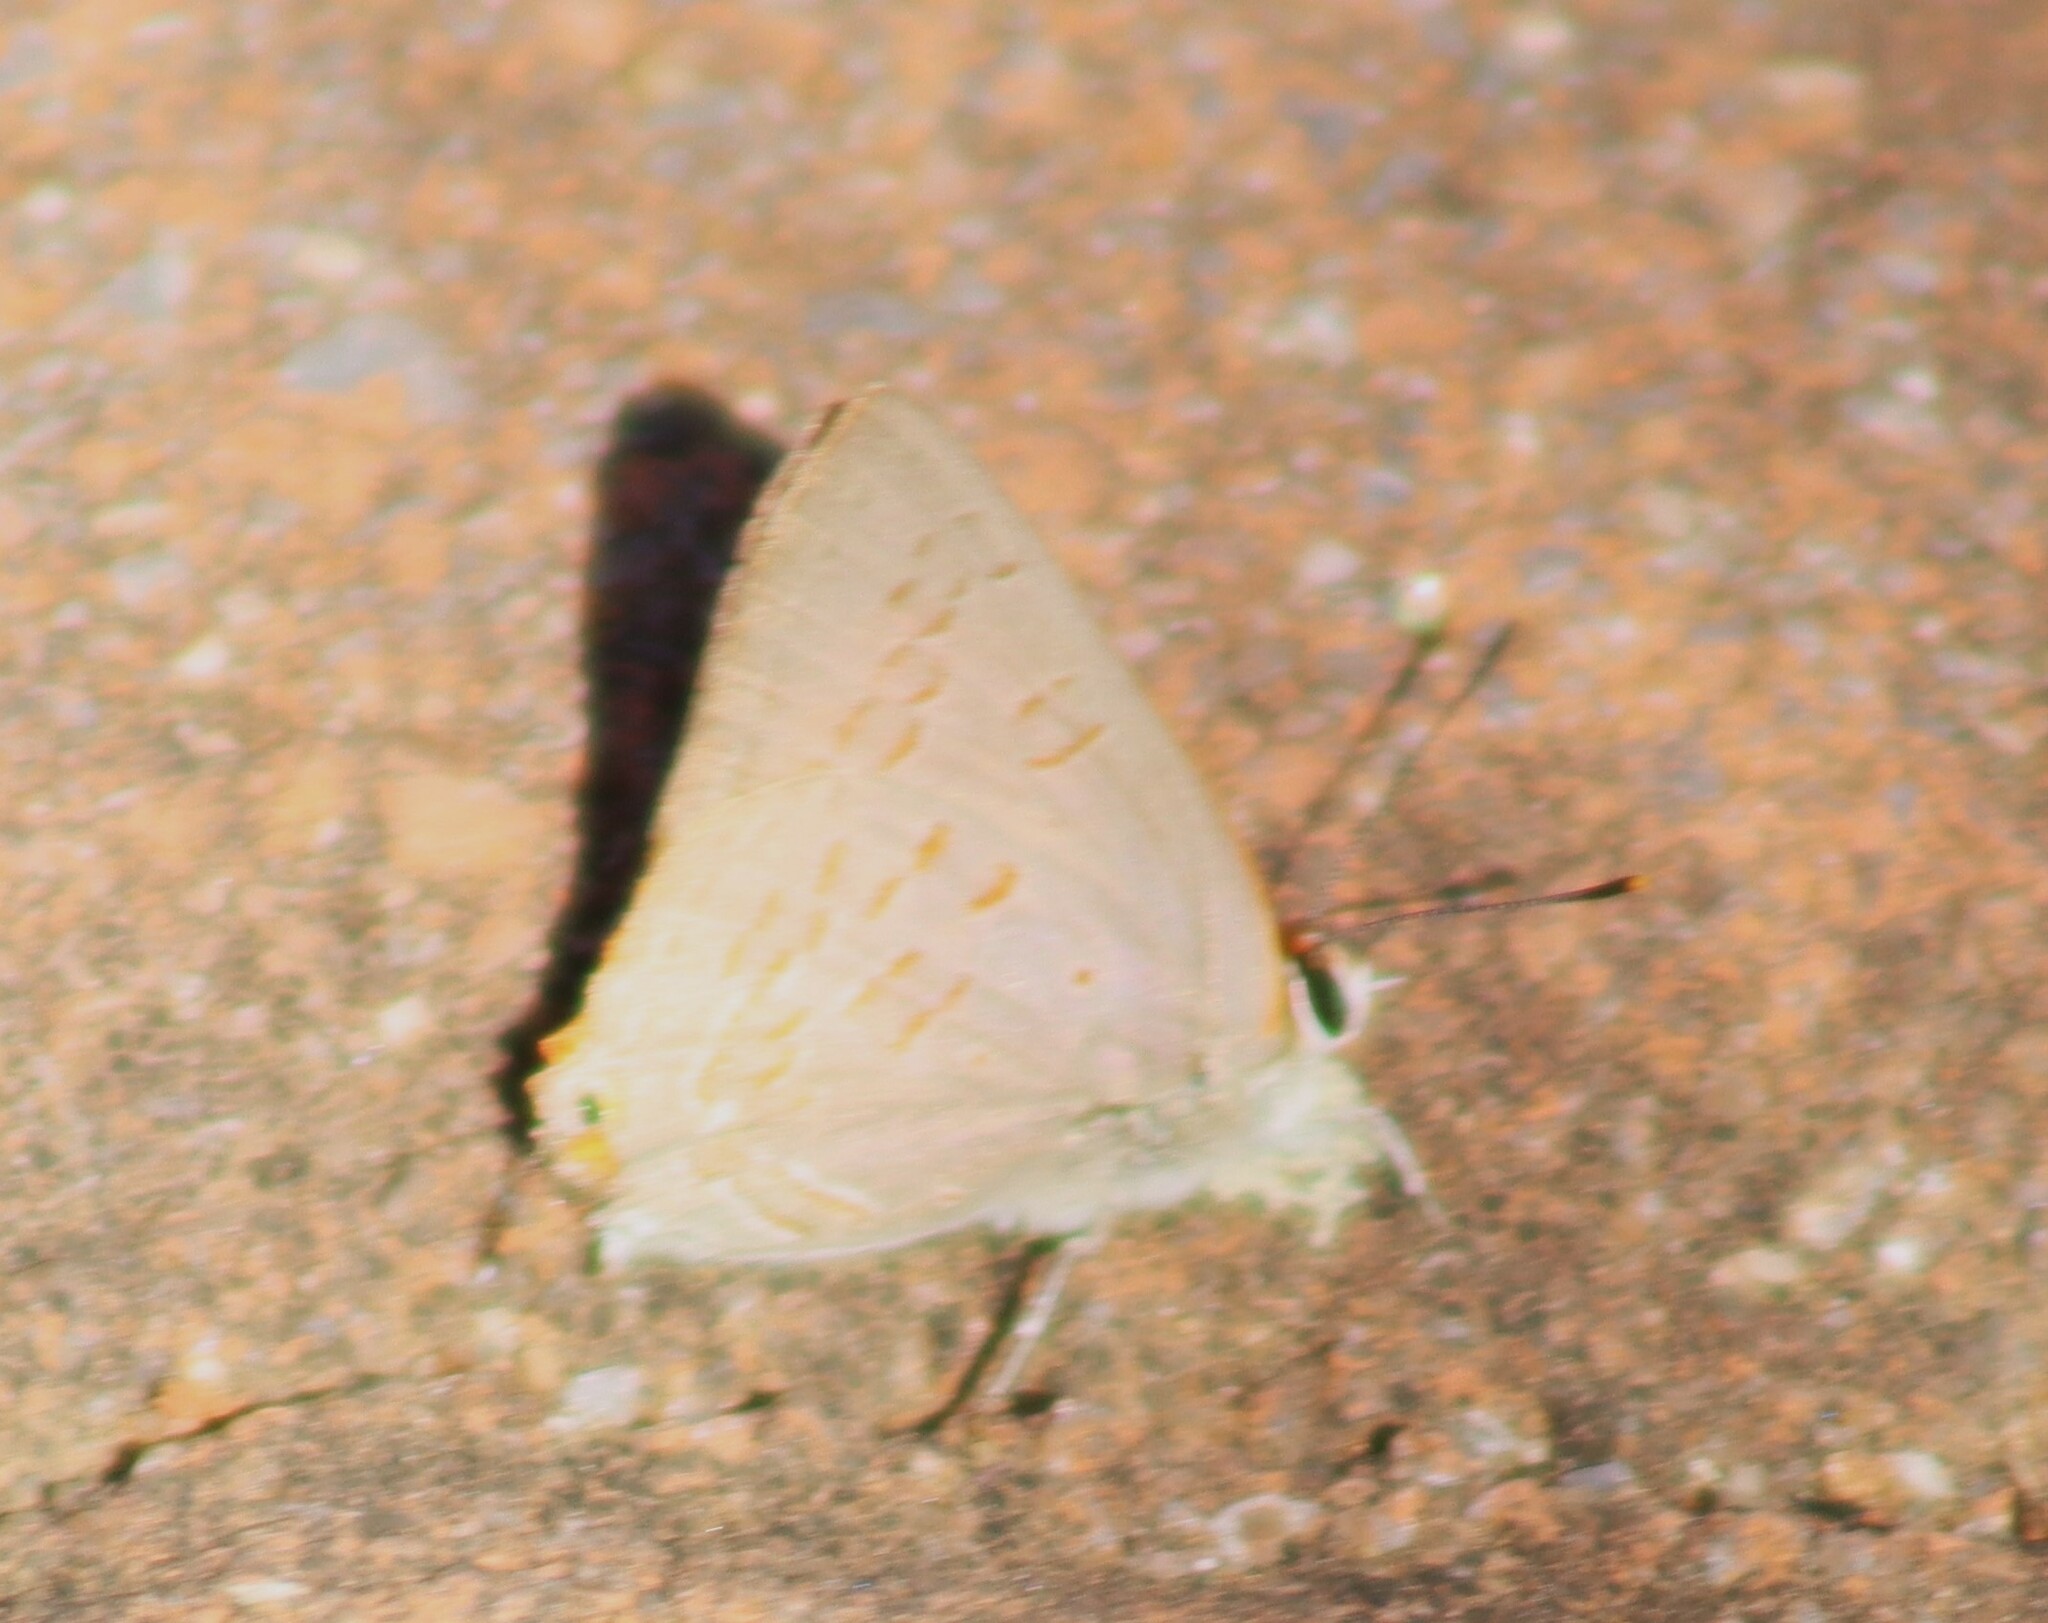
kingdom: Animalia
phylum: Arthropoda
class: Insecta
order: Lepidoptera
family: Lycaenidae
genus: Deudorix
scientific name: Deudorix dinochares
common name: Apricot playboy
